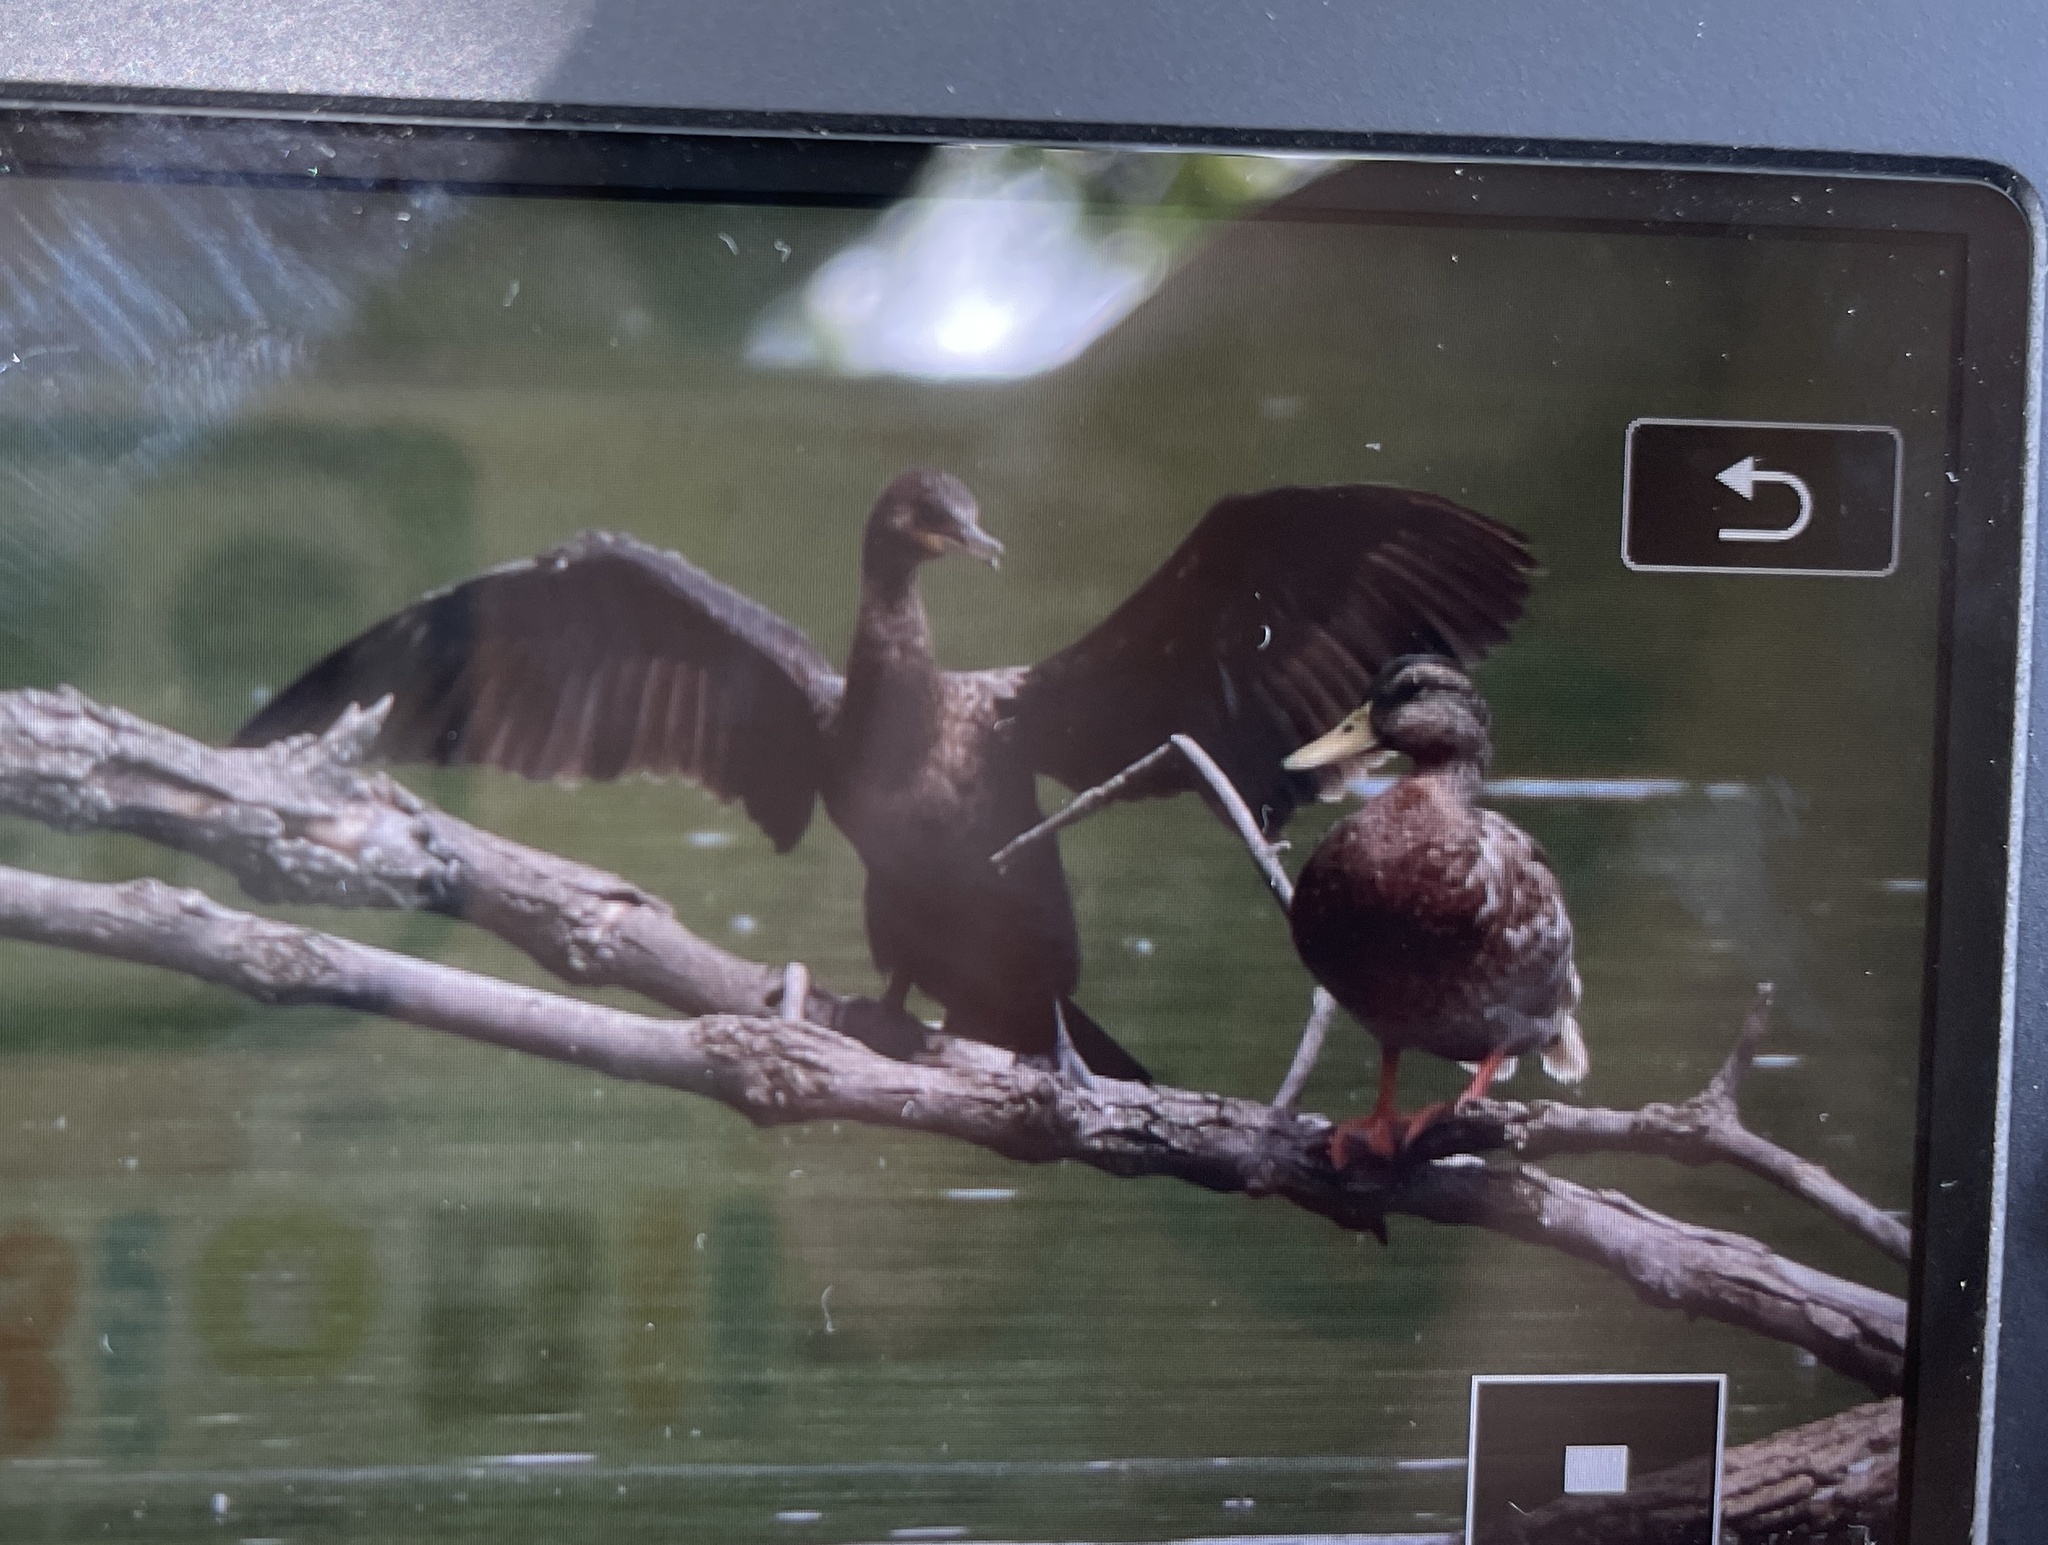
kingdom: Animalia
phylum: Chordata
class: Aves
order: Suliformes
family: Phalacrocoracidae
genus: Phalacrocorax
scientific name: Phalacrocorax brasilianus
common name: Neotropic cormorant
